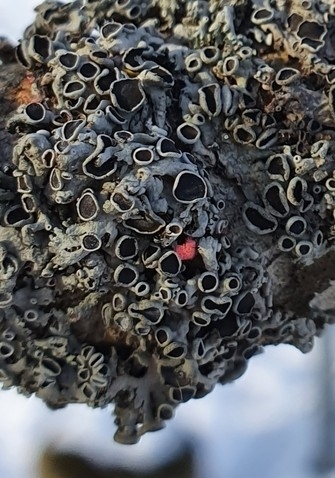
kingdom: Fungi
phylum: Ascomycota
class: Sordariomycetes
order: Hypocreales
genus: Illosporiopsis
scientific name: Illosporiopsis christiansenii
